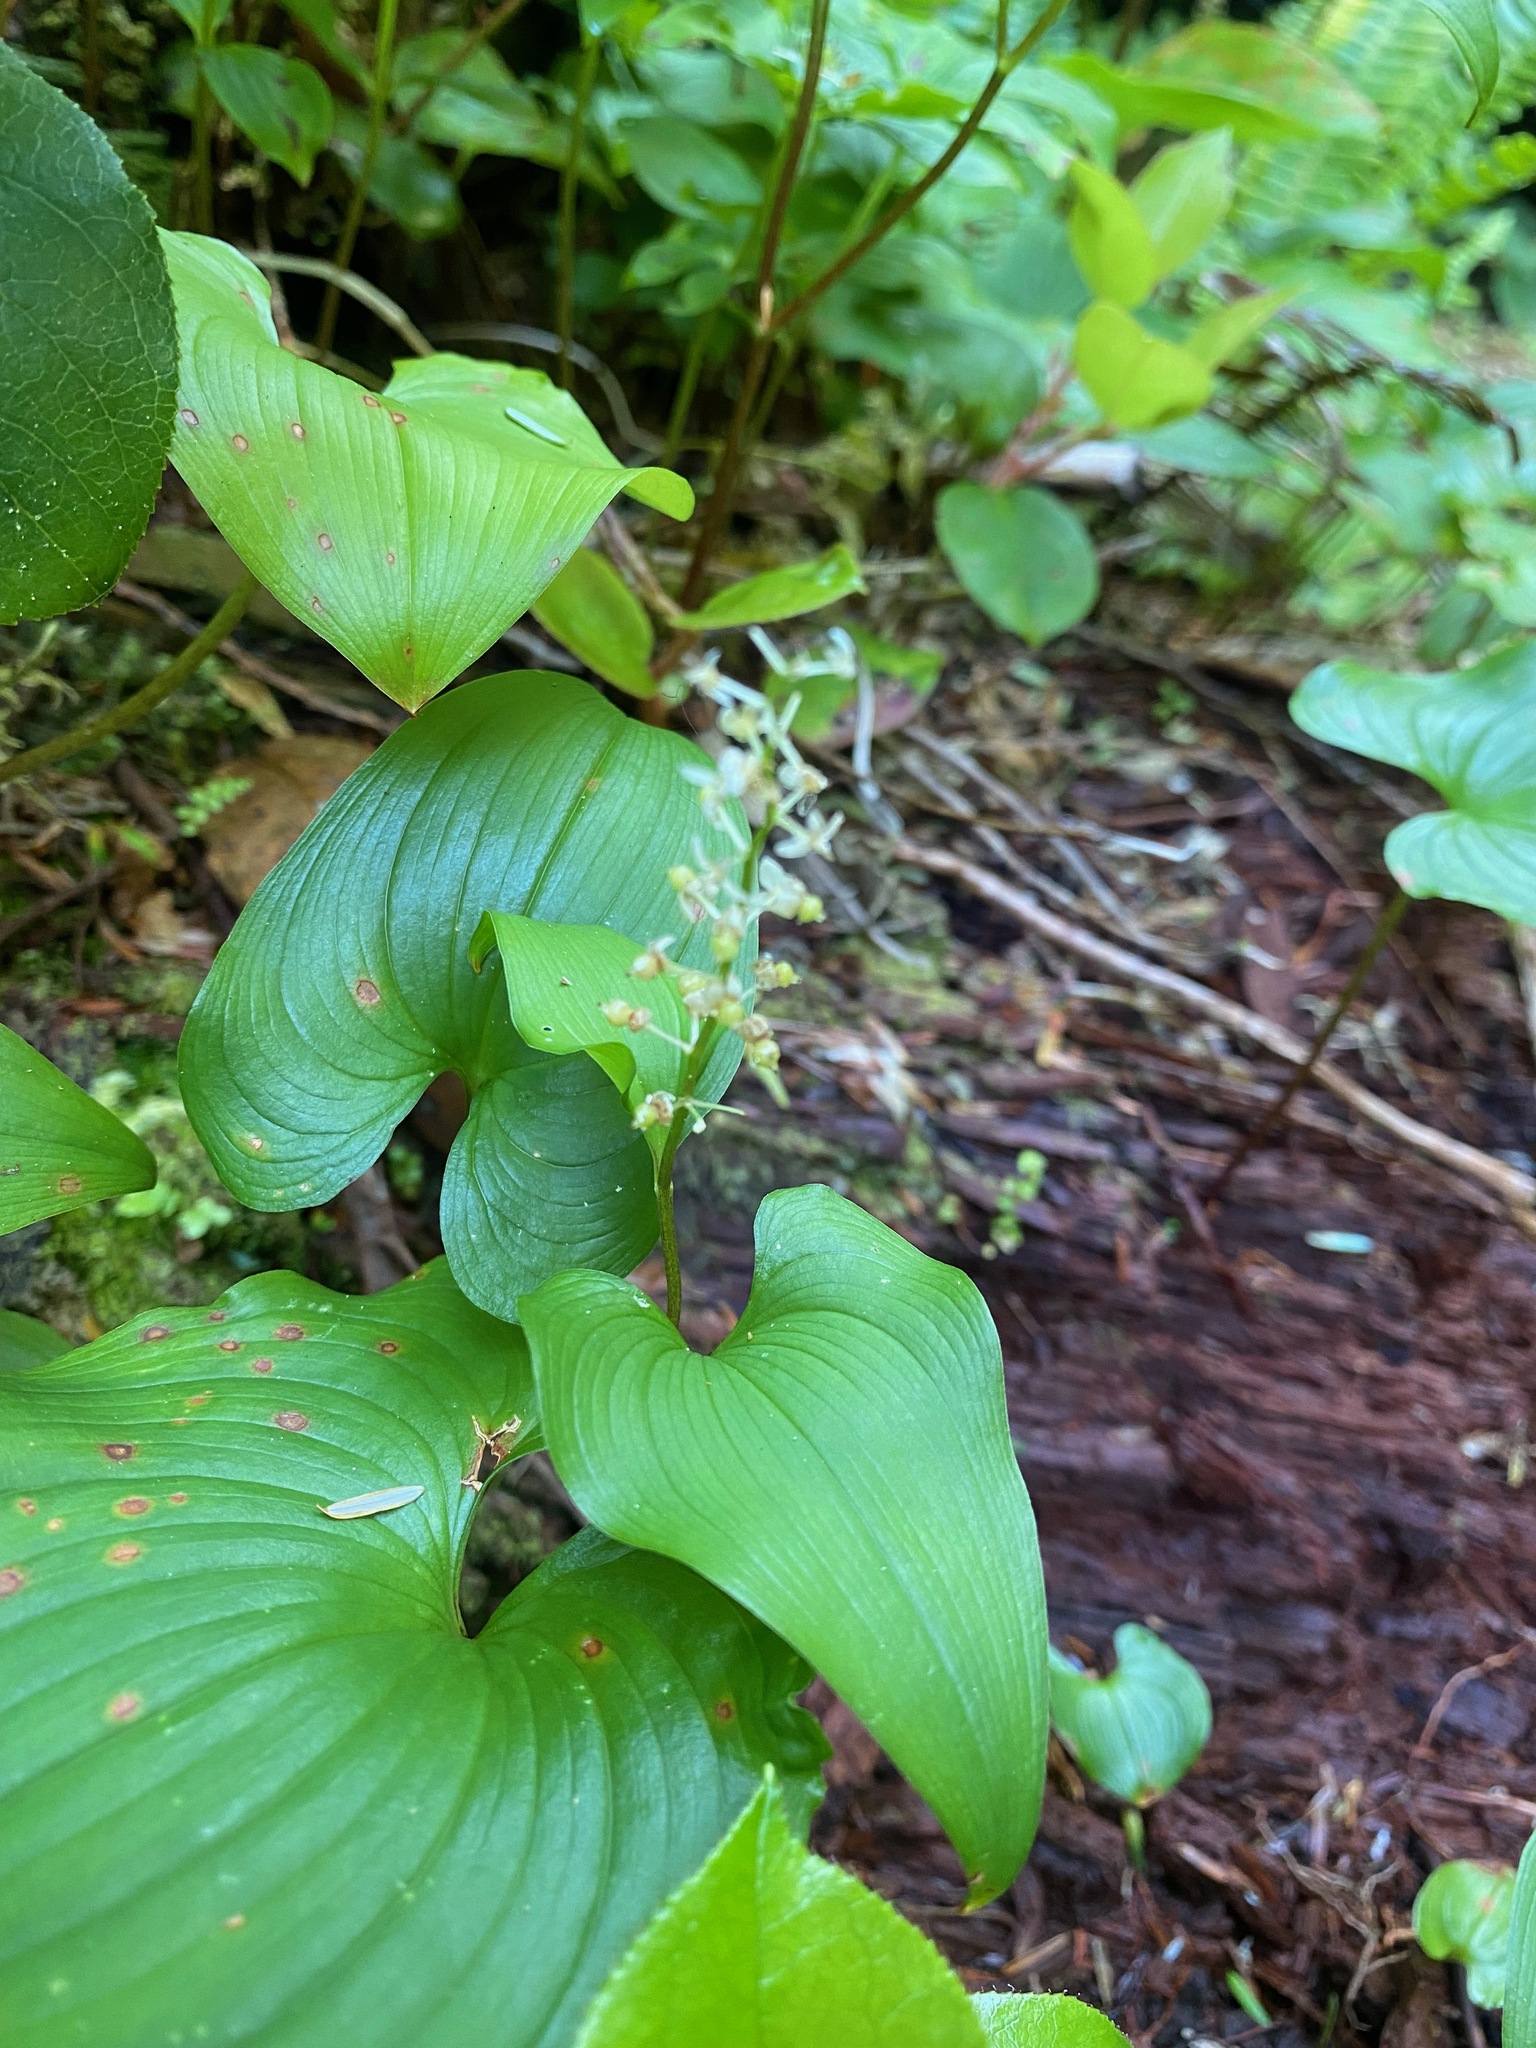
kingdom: Plantae
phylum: Tracheophyta
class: Liliopsida
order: Asparagales
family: Asparagaceae
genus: Maianthemum
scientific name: Maianthemum dilatatum
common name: False lily-of-the-valley
